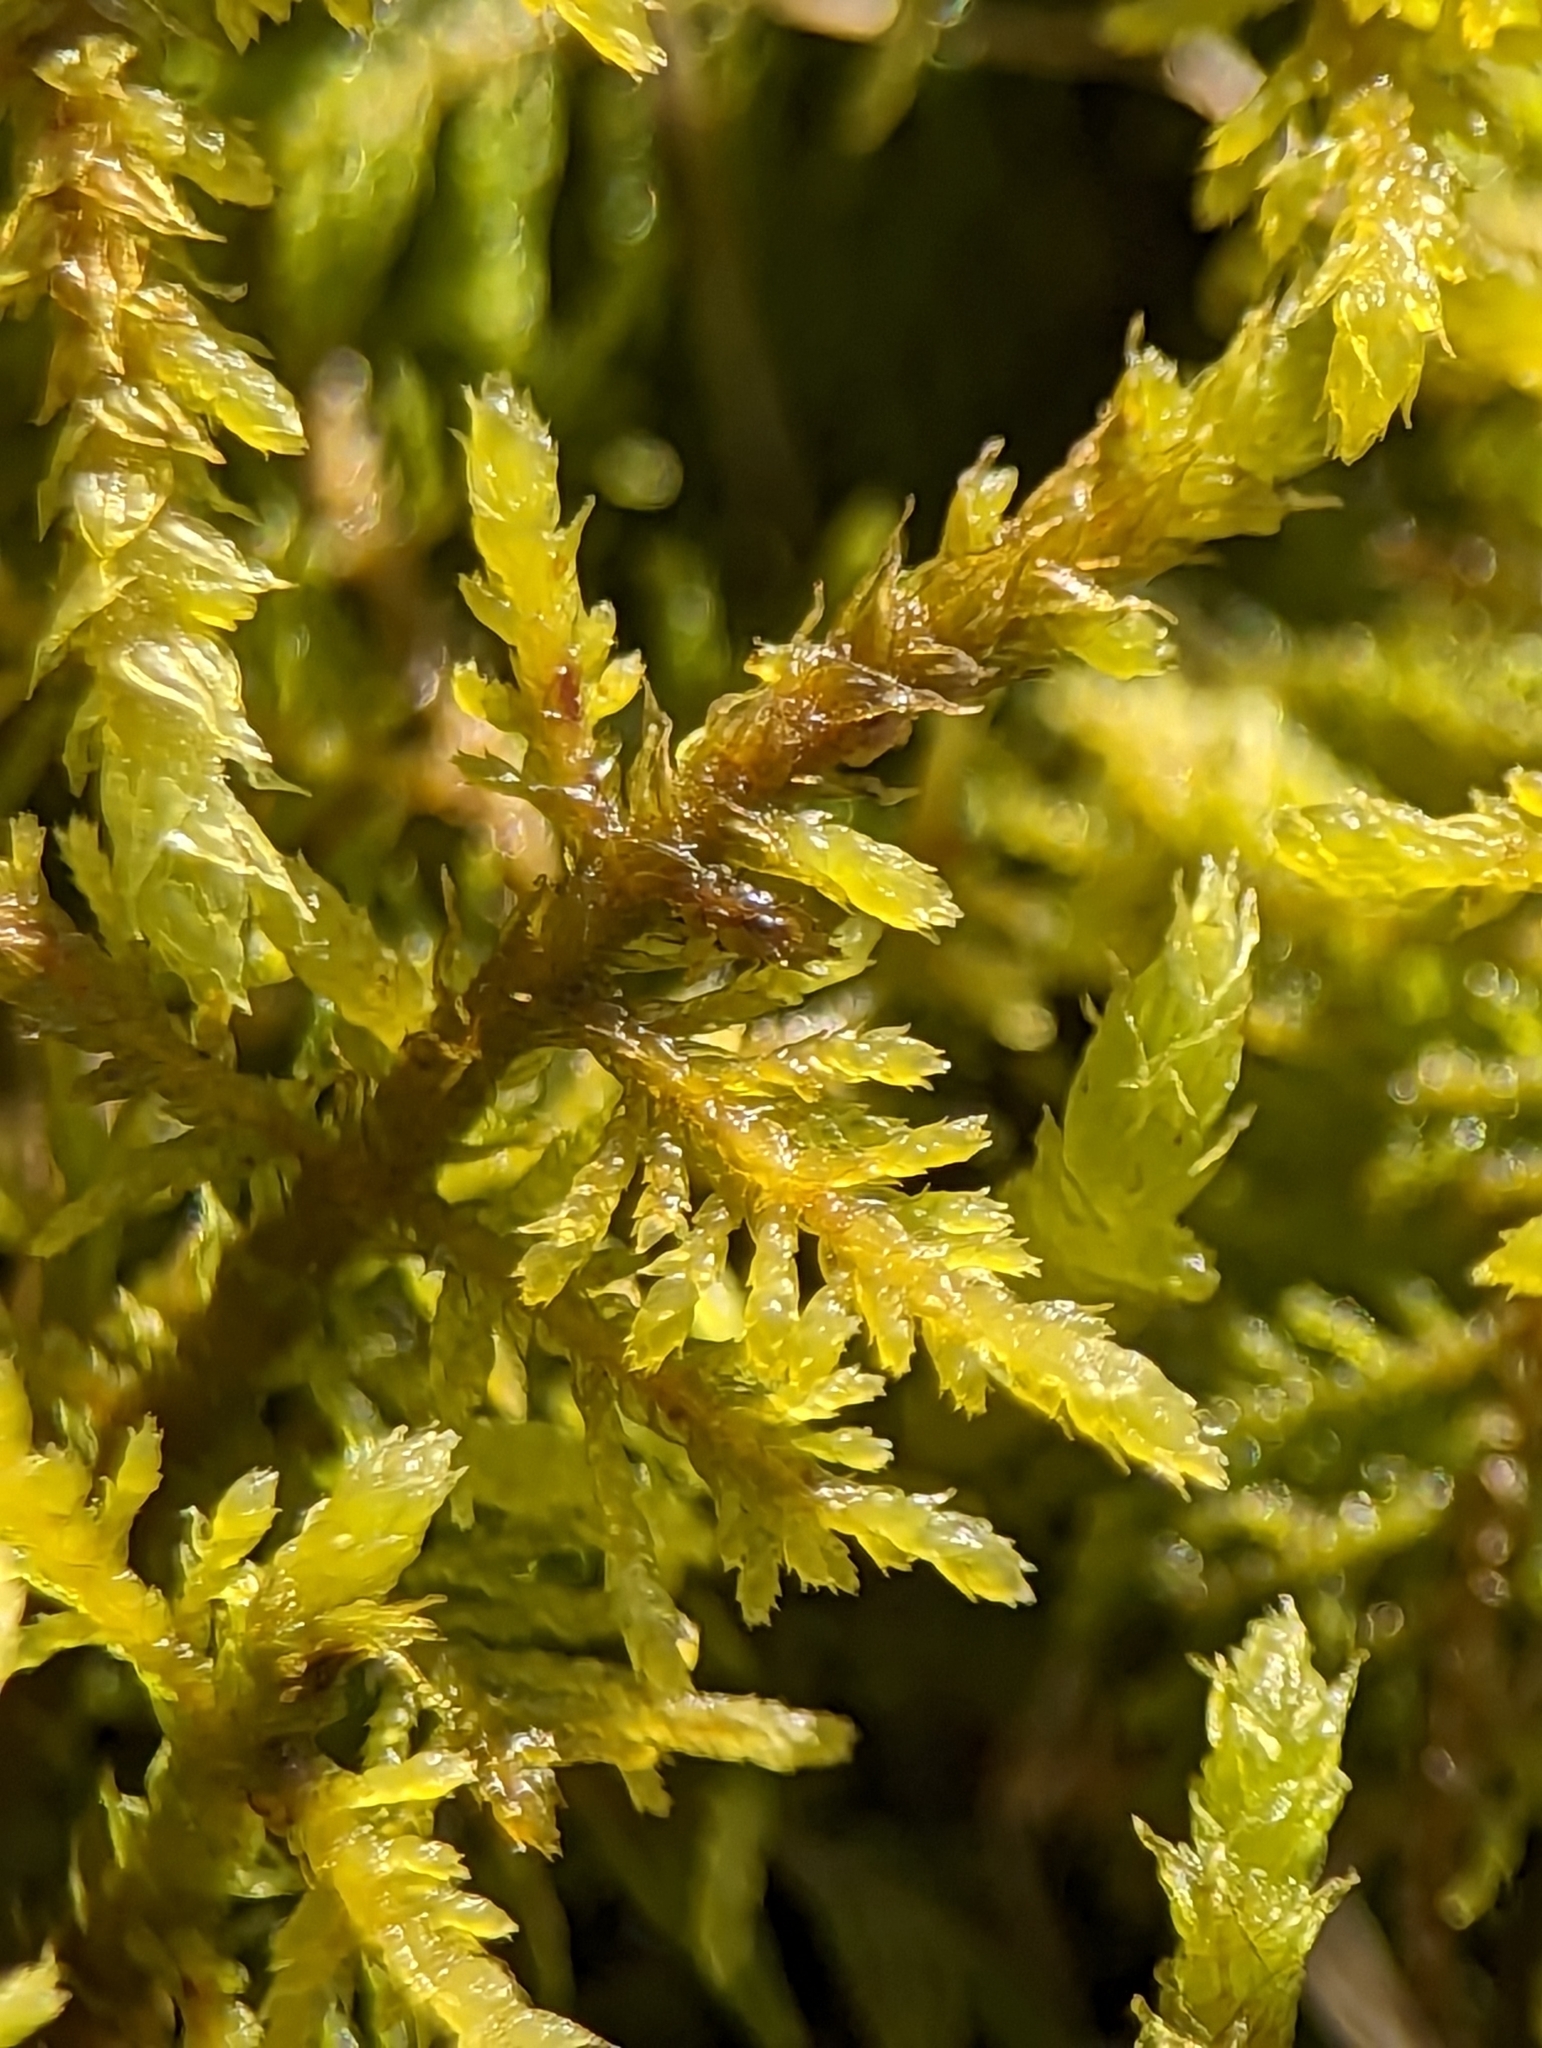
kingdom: Plantae
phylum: Bryophyta
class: Bryopsida
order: Hypnales
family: Thuidiaceae
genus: Thuidium
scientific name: Thuidium delicatulum
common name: Delicate fern moss
